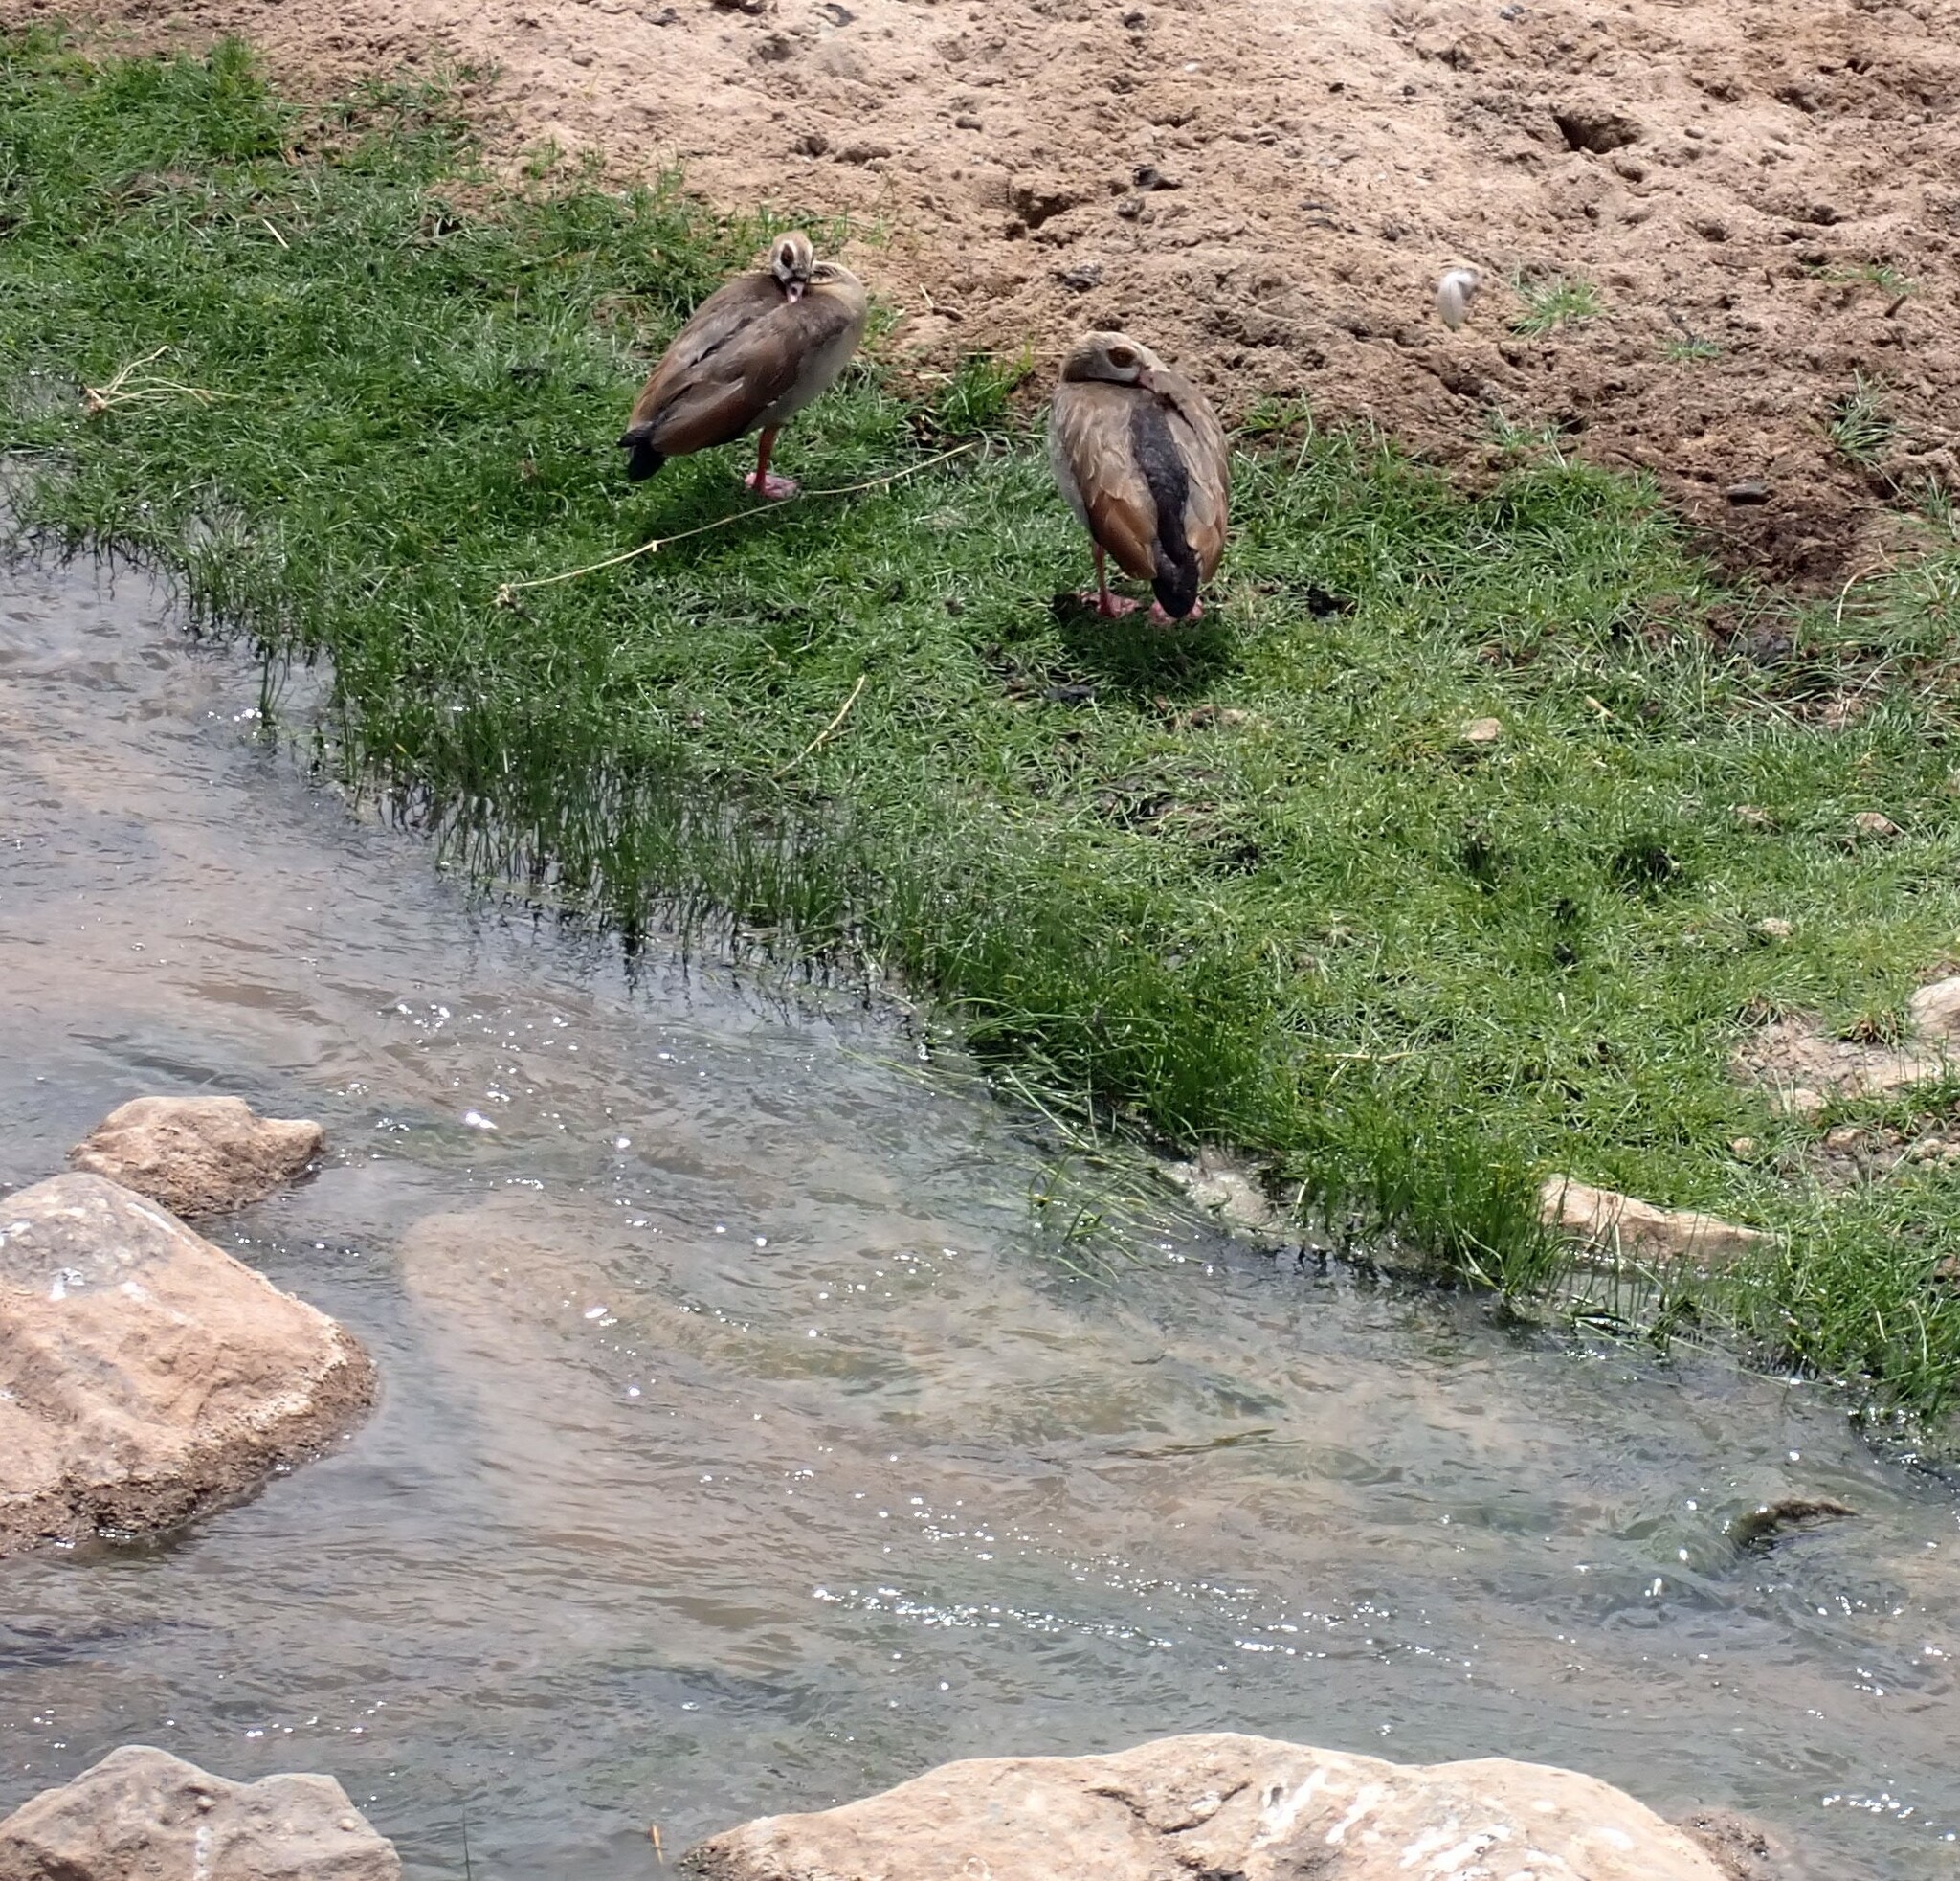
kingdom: Animalia
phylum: Chordata
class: Aves
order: Anseriformes
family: Anatidae
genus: Alopochen
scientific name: Alopochen aegyptiaca
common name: Egyptian goose
